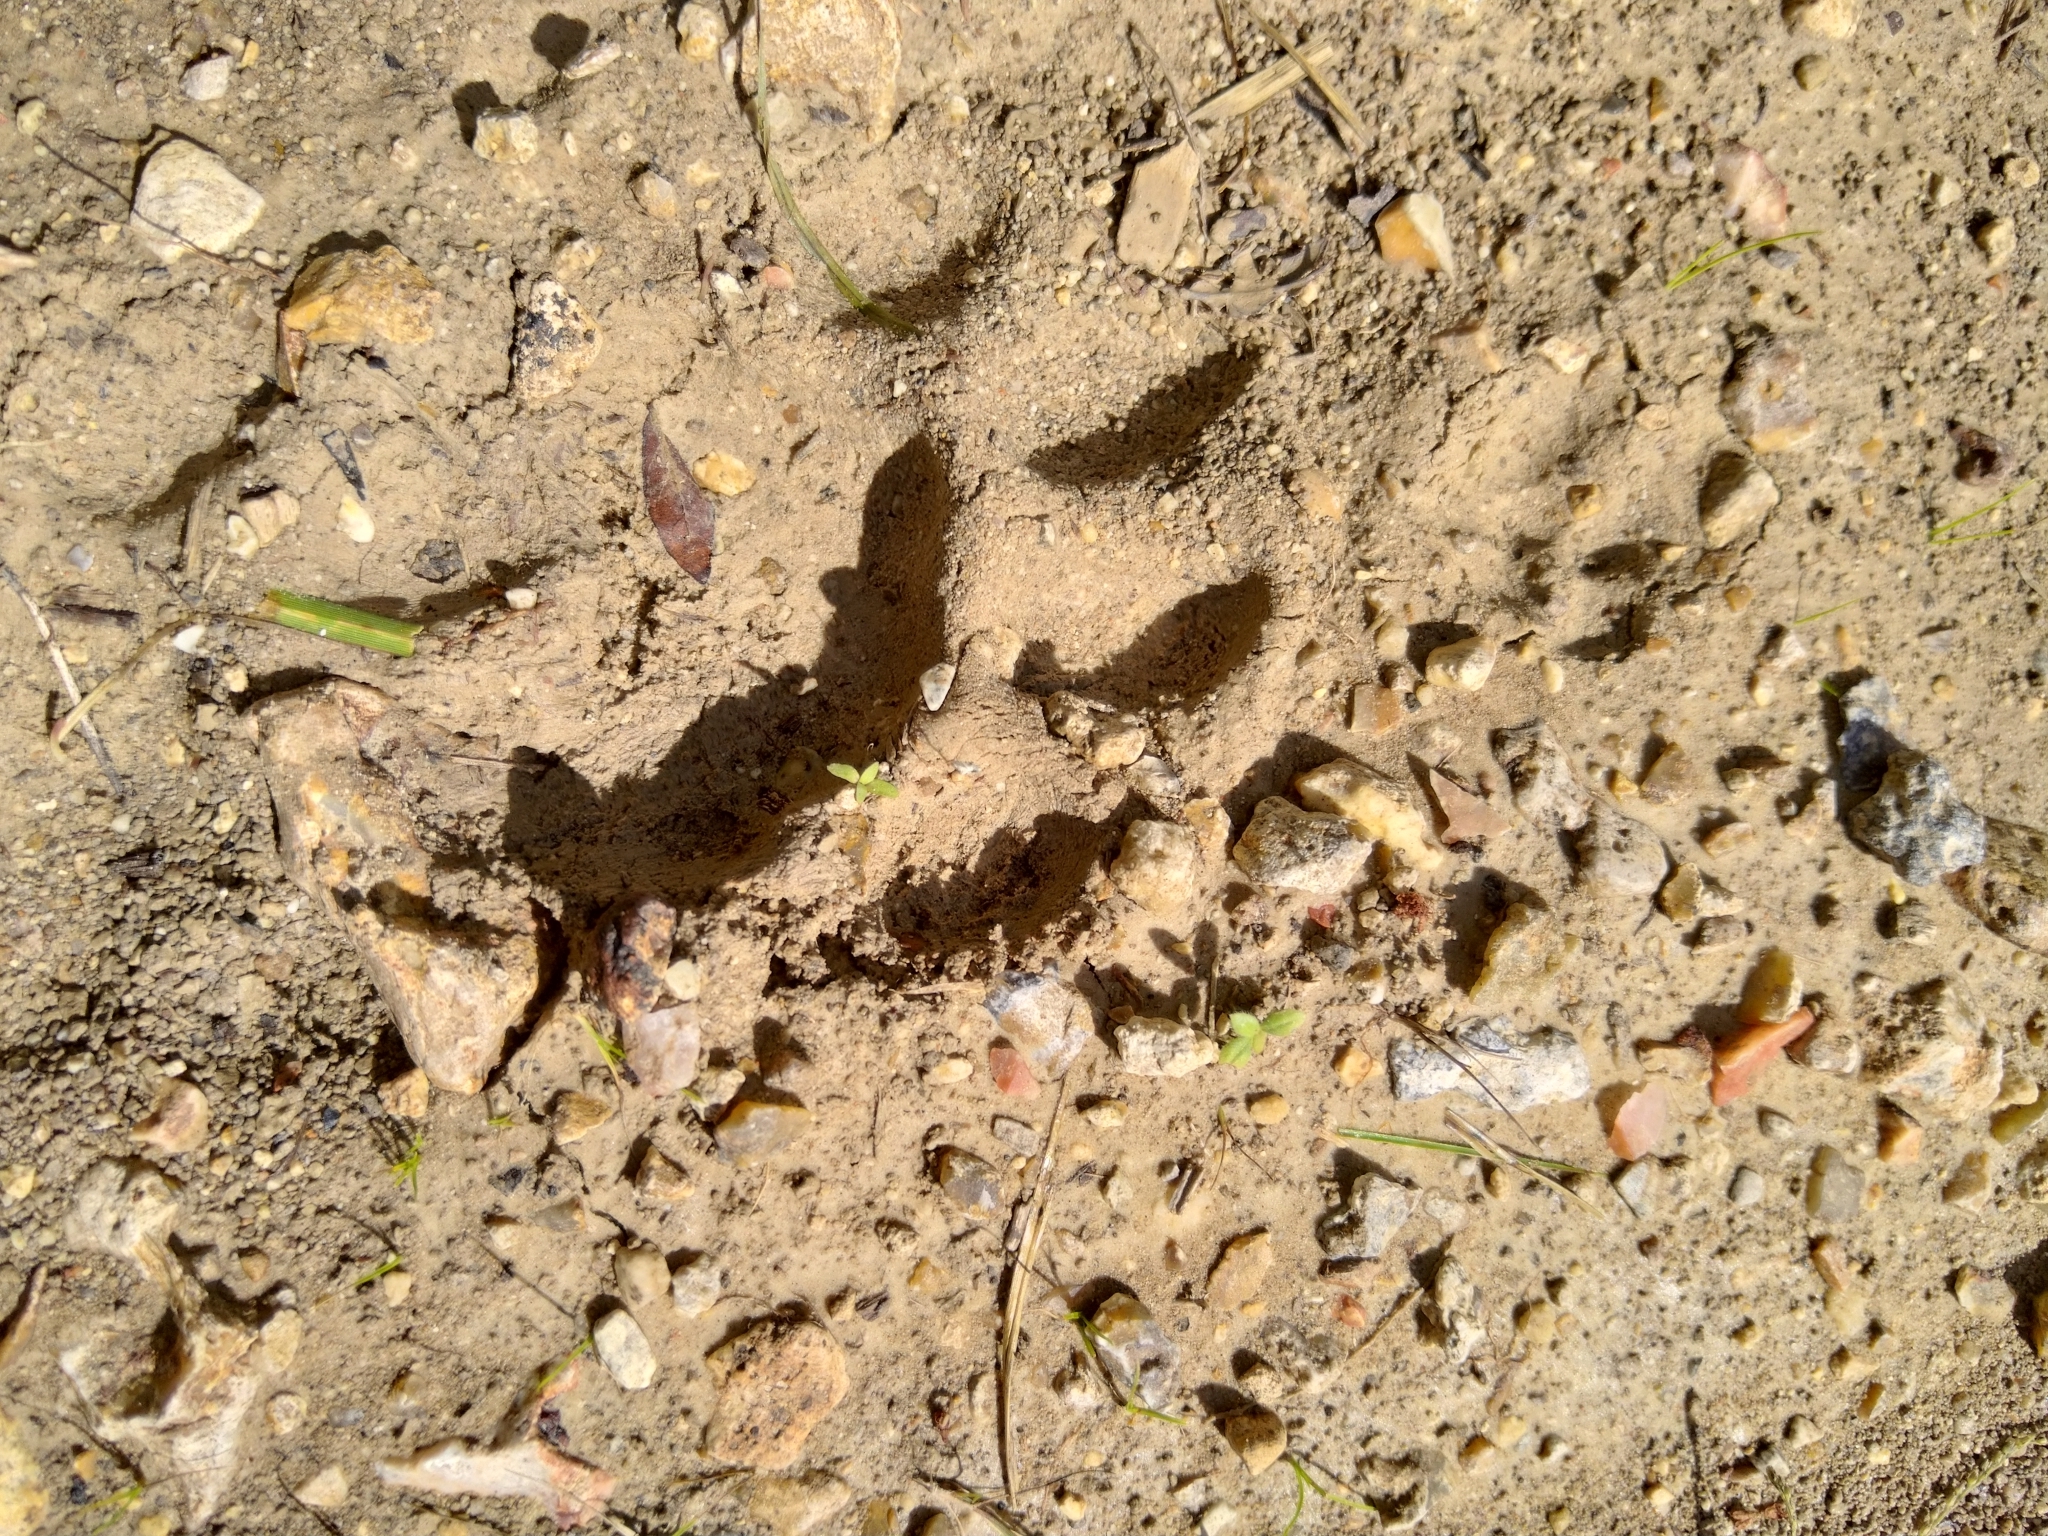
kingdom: Animalia
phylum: Chordata
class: Mammalia
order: Carnivora
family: Felidae
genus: Panthera
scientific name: Panthera onca
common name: Jaguar
